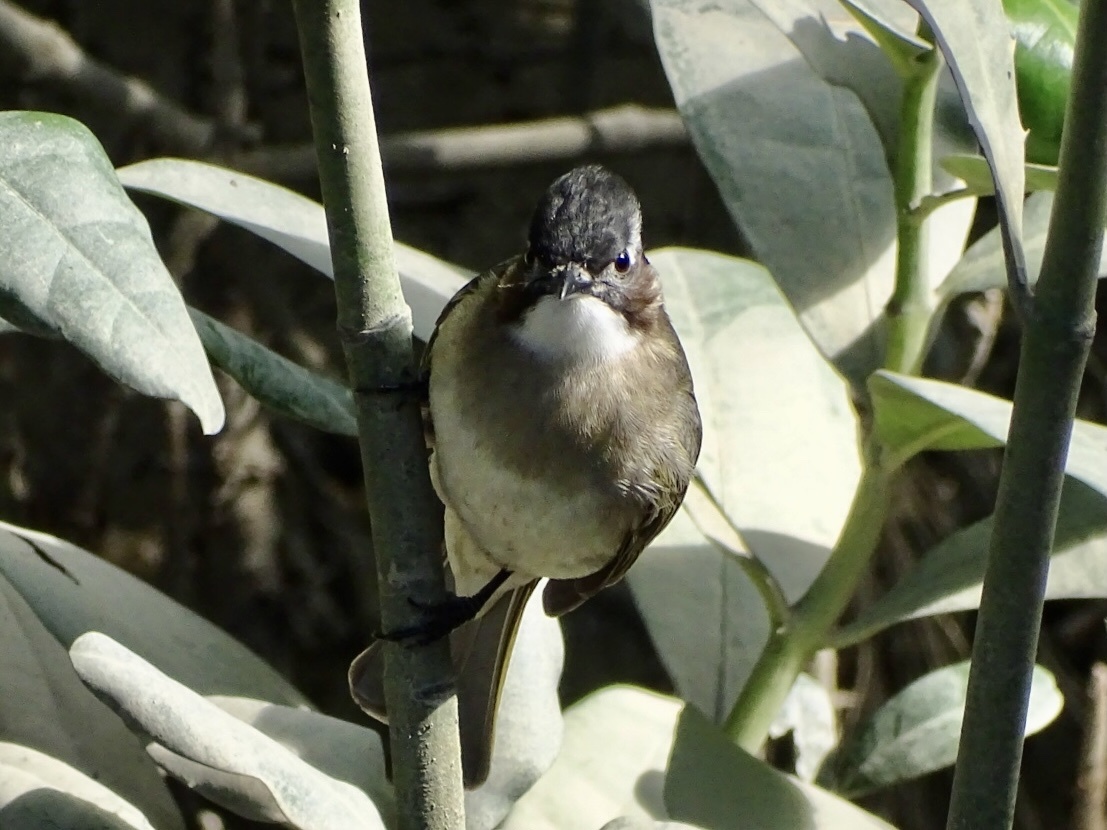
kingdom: Animalia
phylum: Chordata
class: Aves
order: Passeriformes
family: Pycnonotidae
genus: Pycnonotus
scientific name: Pycnonotus sinensis
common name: Light-vented bulbul
